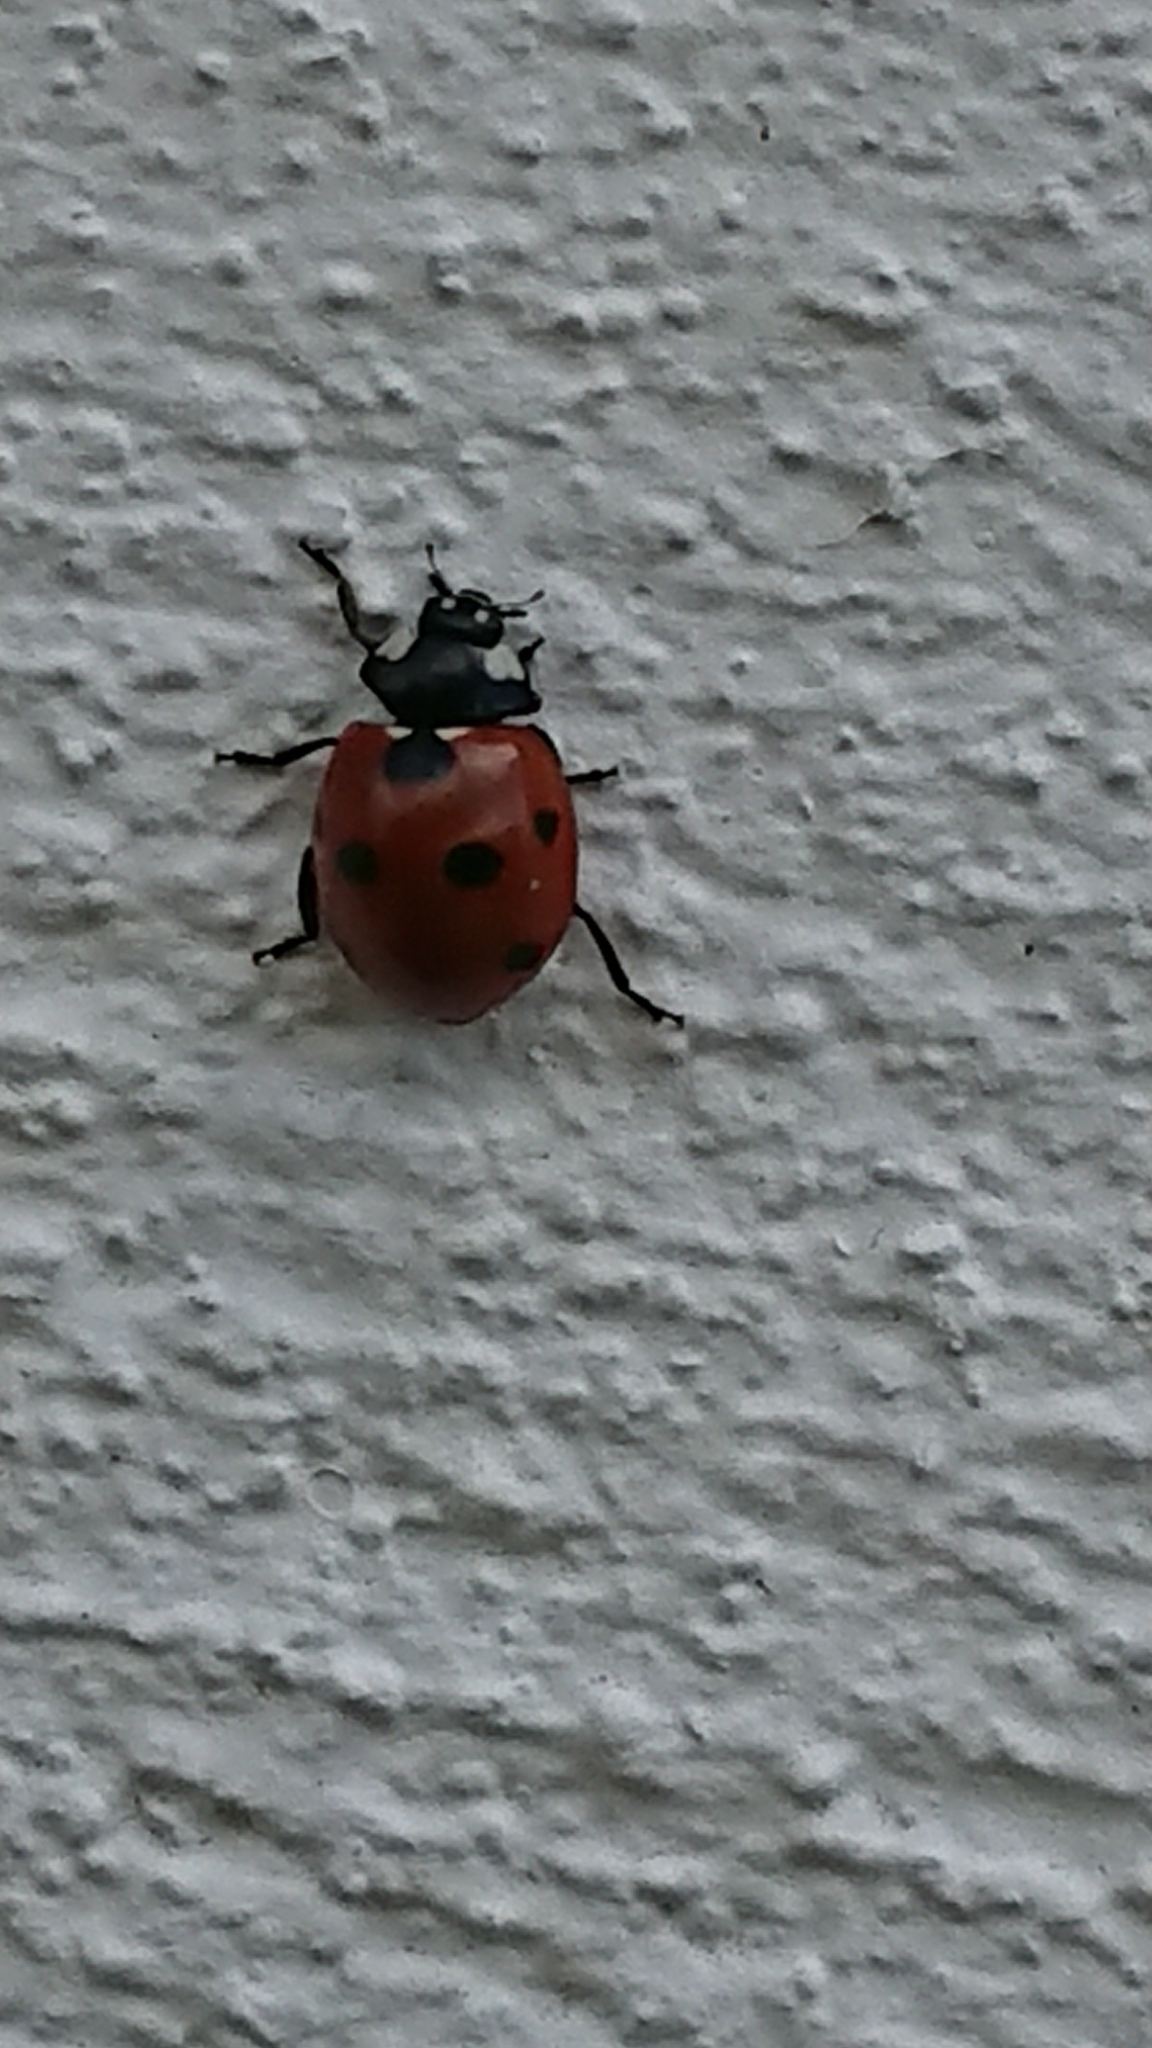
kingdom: Animalia
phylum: Arthropoda
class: Insecta
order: Coleoptera
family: Coccinellidae
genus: Coccinella
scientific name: Coccinella septempunctata
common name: Sevenspotted lady beetle
